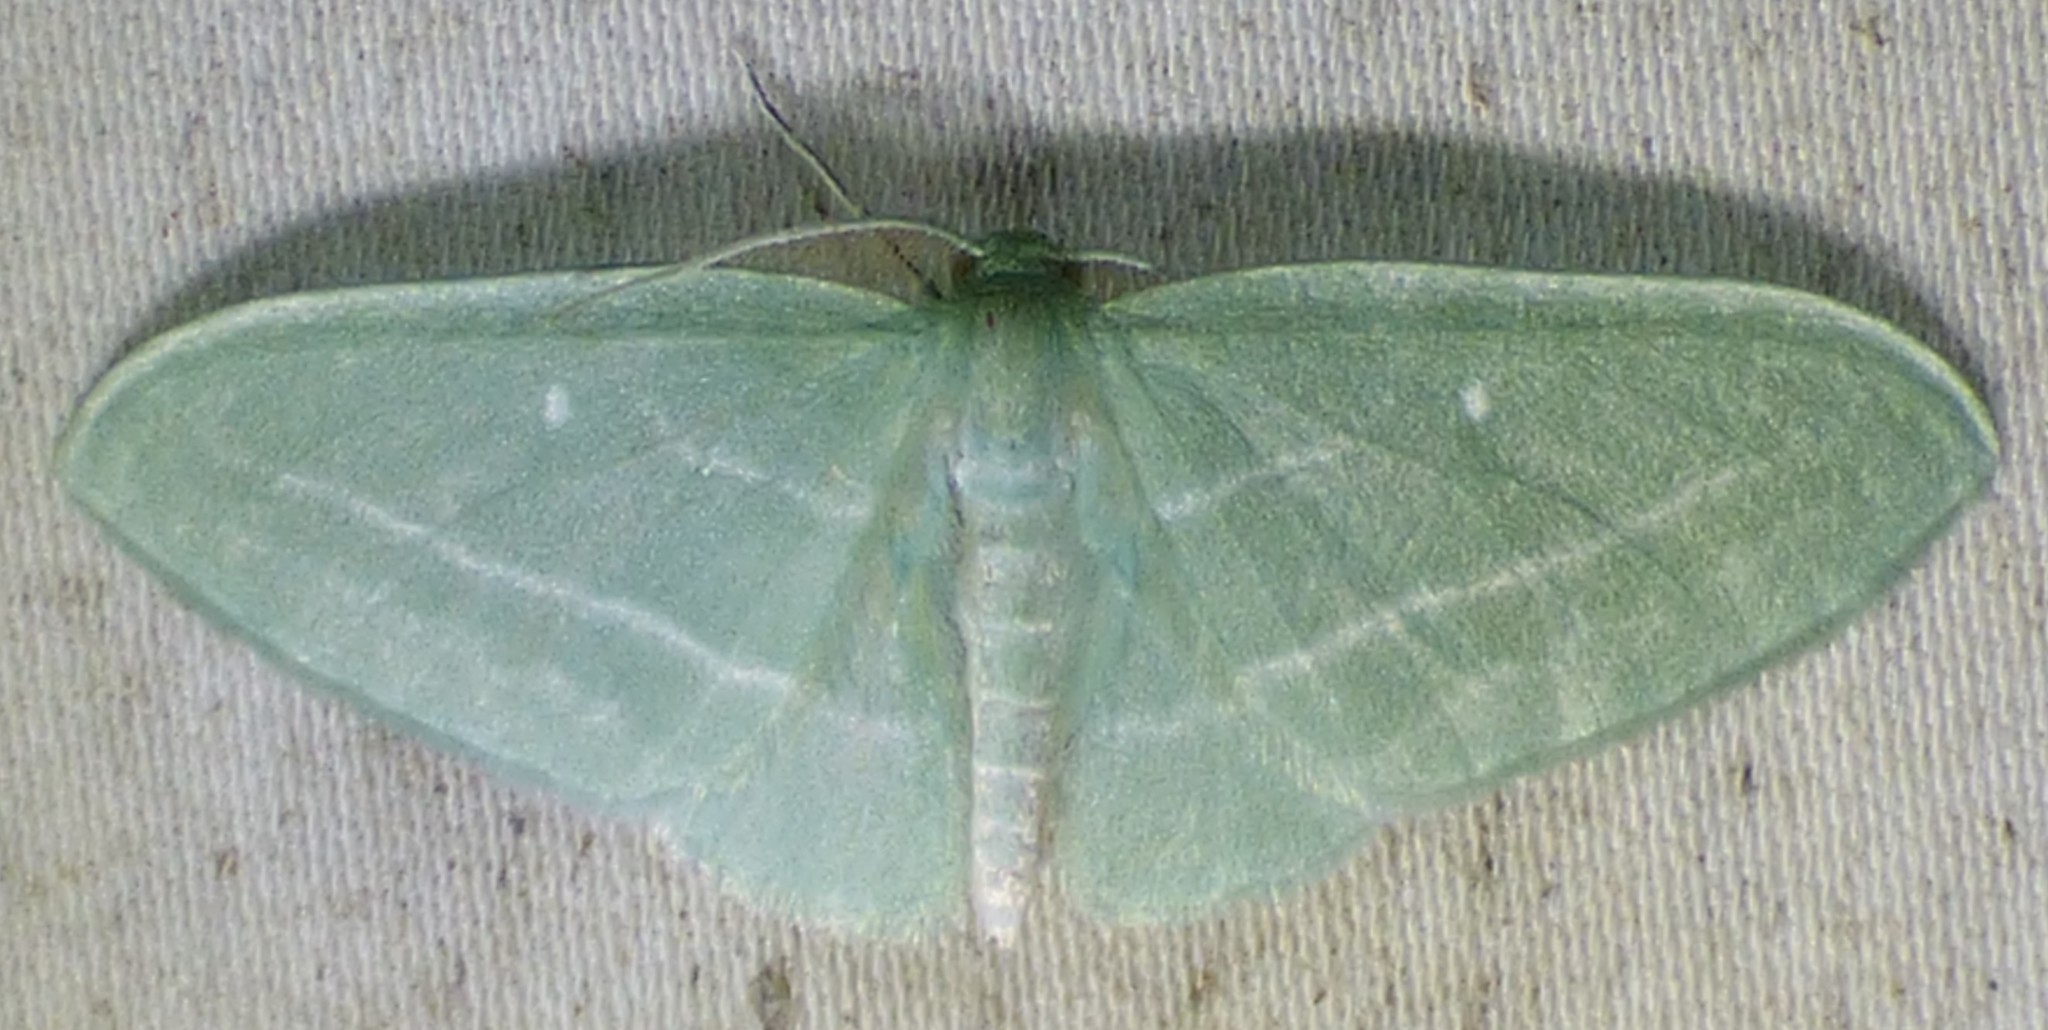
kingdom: Animalia
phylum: Arthropoda
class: Insecta
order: Lepidoptera
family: Geometridae
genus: Dyspteris
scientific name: Dyspteris abortivaria
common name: Bad-wing
